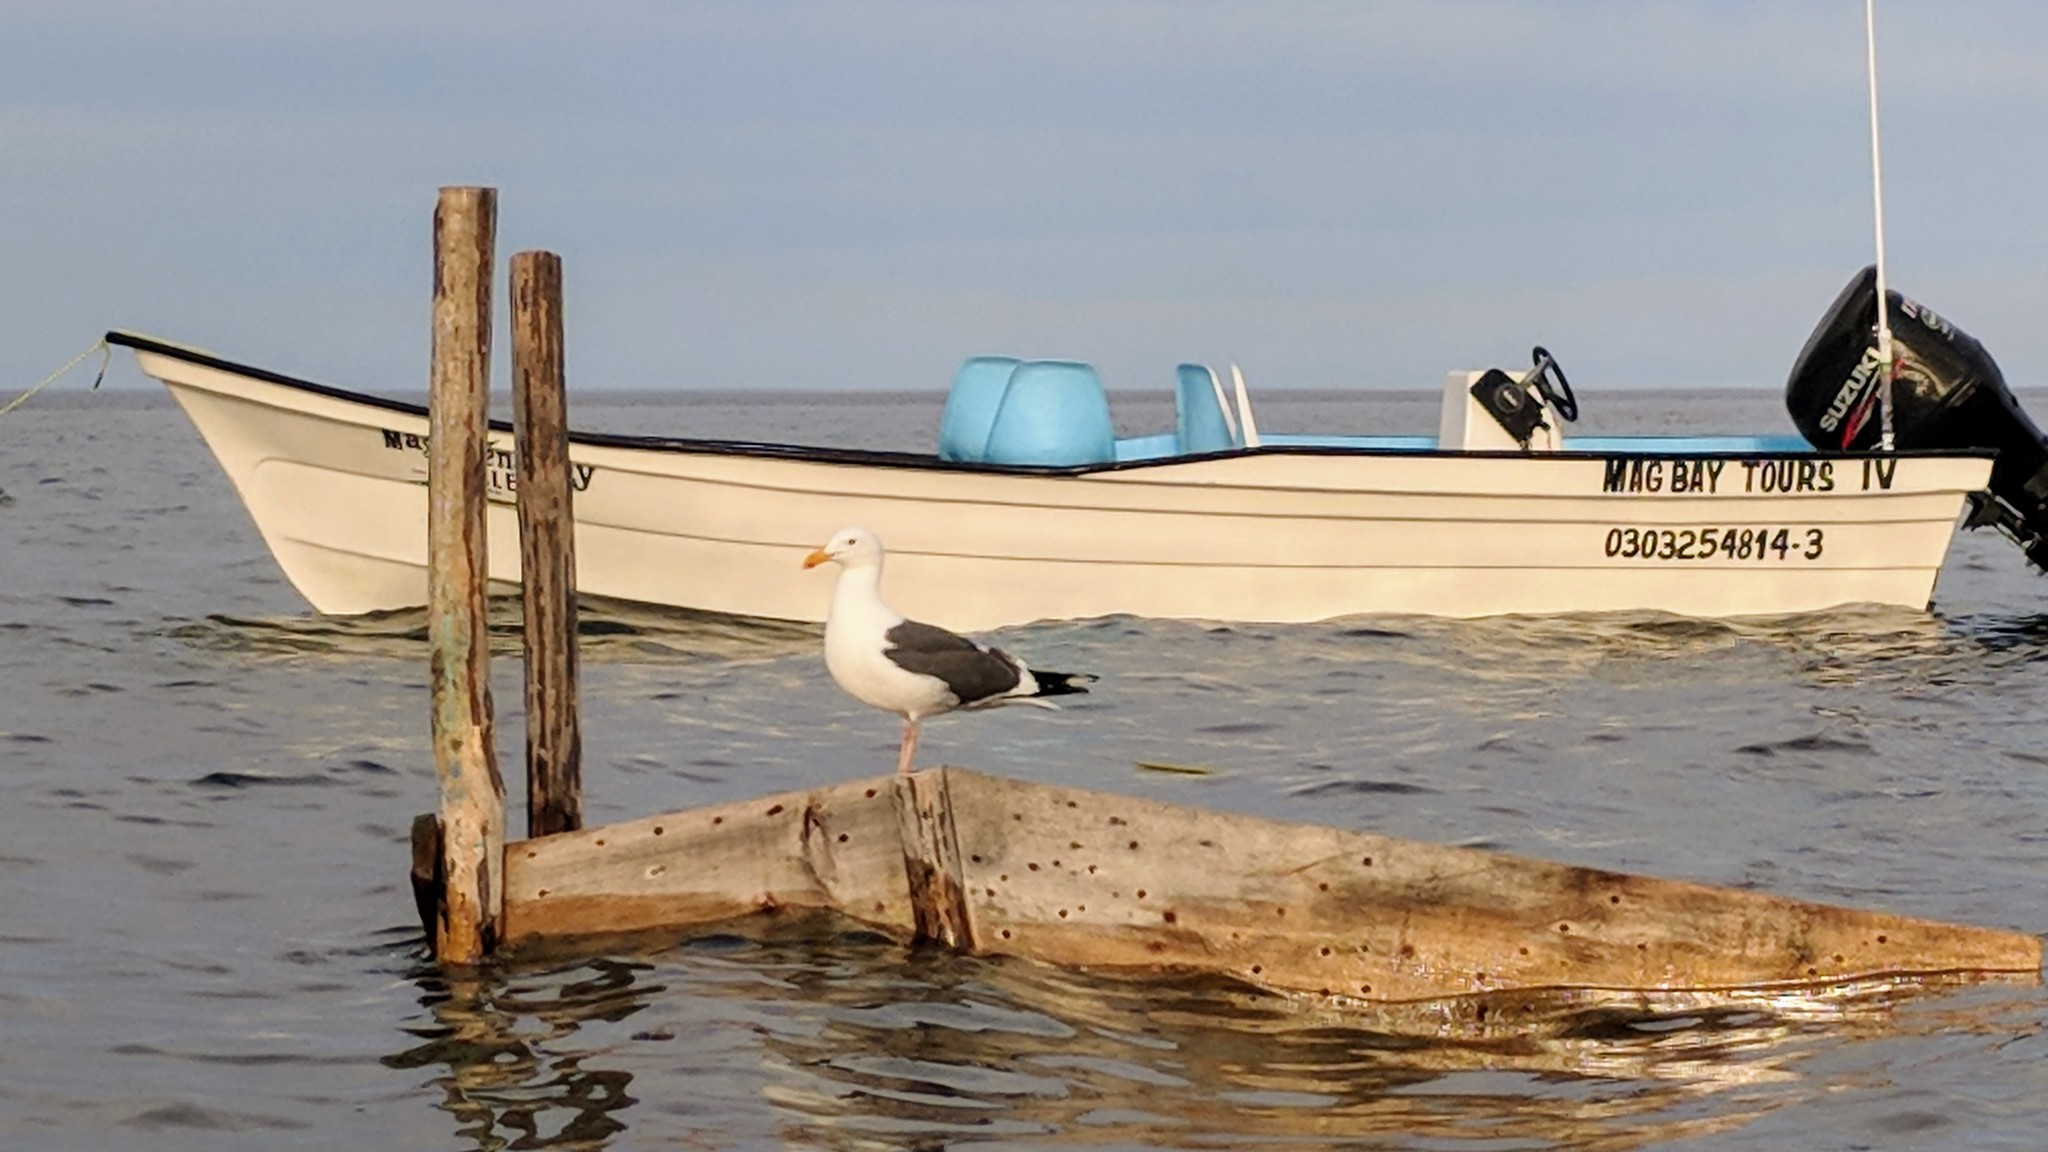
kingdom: Animalia
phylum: Chordata
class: Aves
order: Charadriiformes
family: Laridae
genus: Larus
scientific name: Larus occidentalis
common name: Western gull
